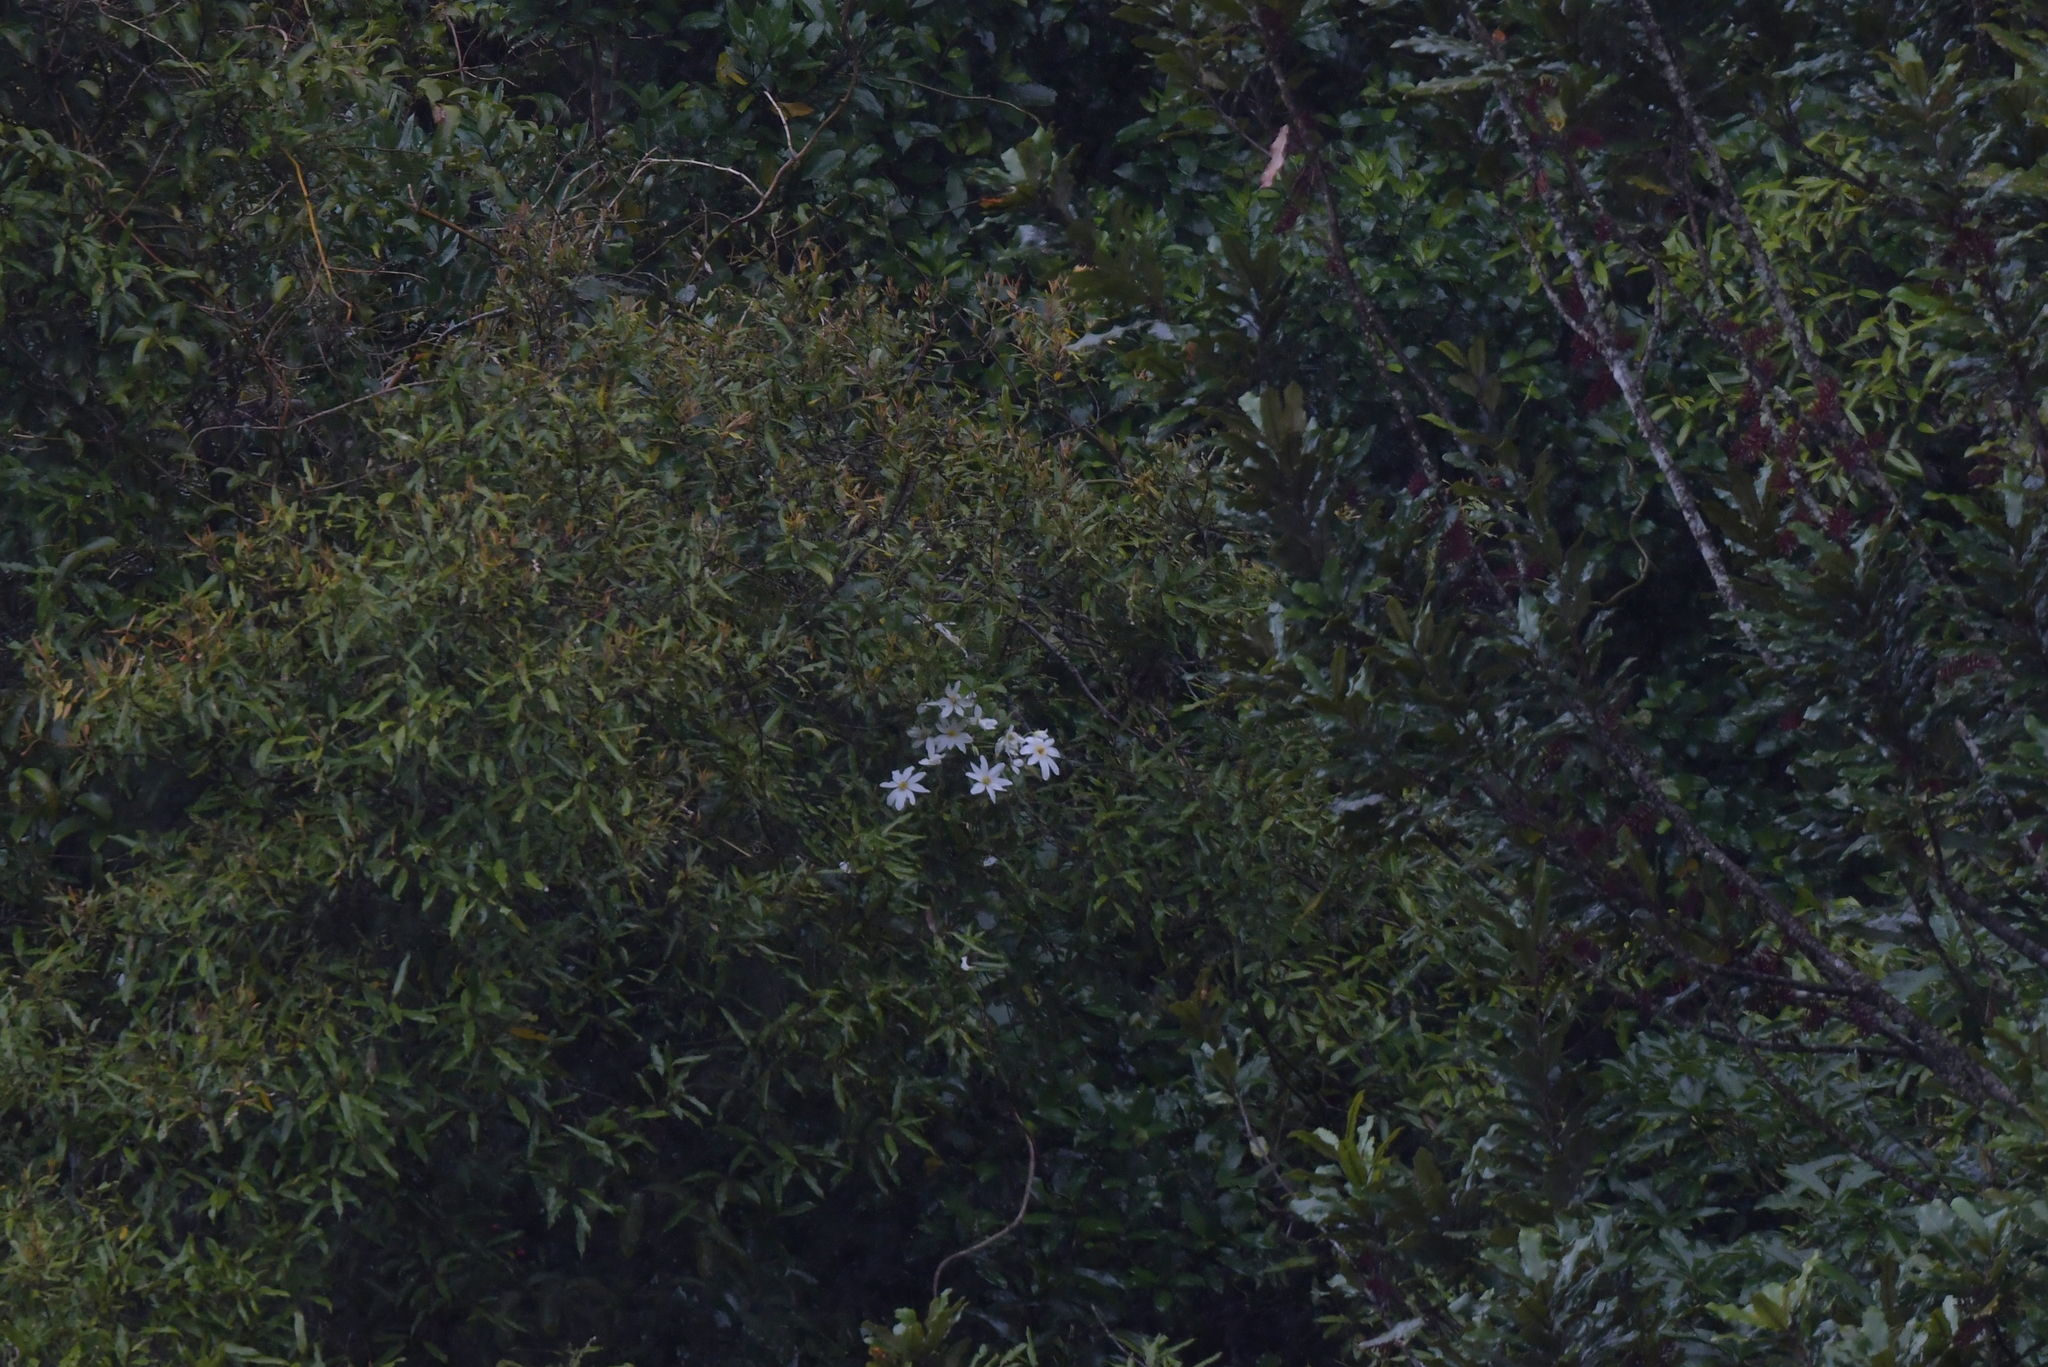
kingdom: Plantae
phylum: Tracheophyta
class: Magnoliopsida
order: Ranunculales
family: Ranunculaceae
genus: Clematis
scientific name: Clematis paniculata
